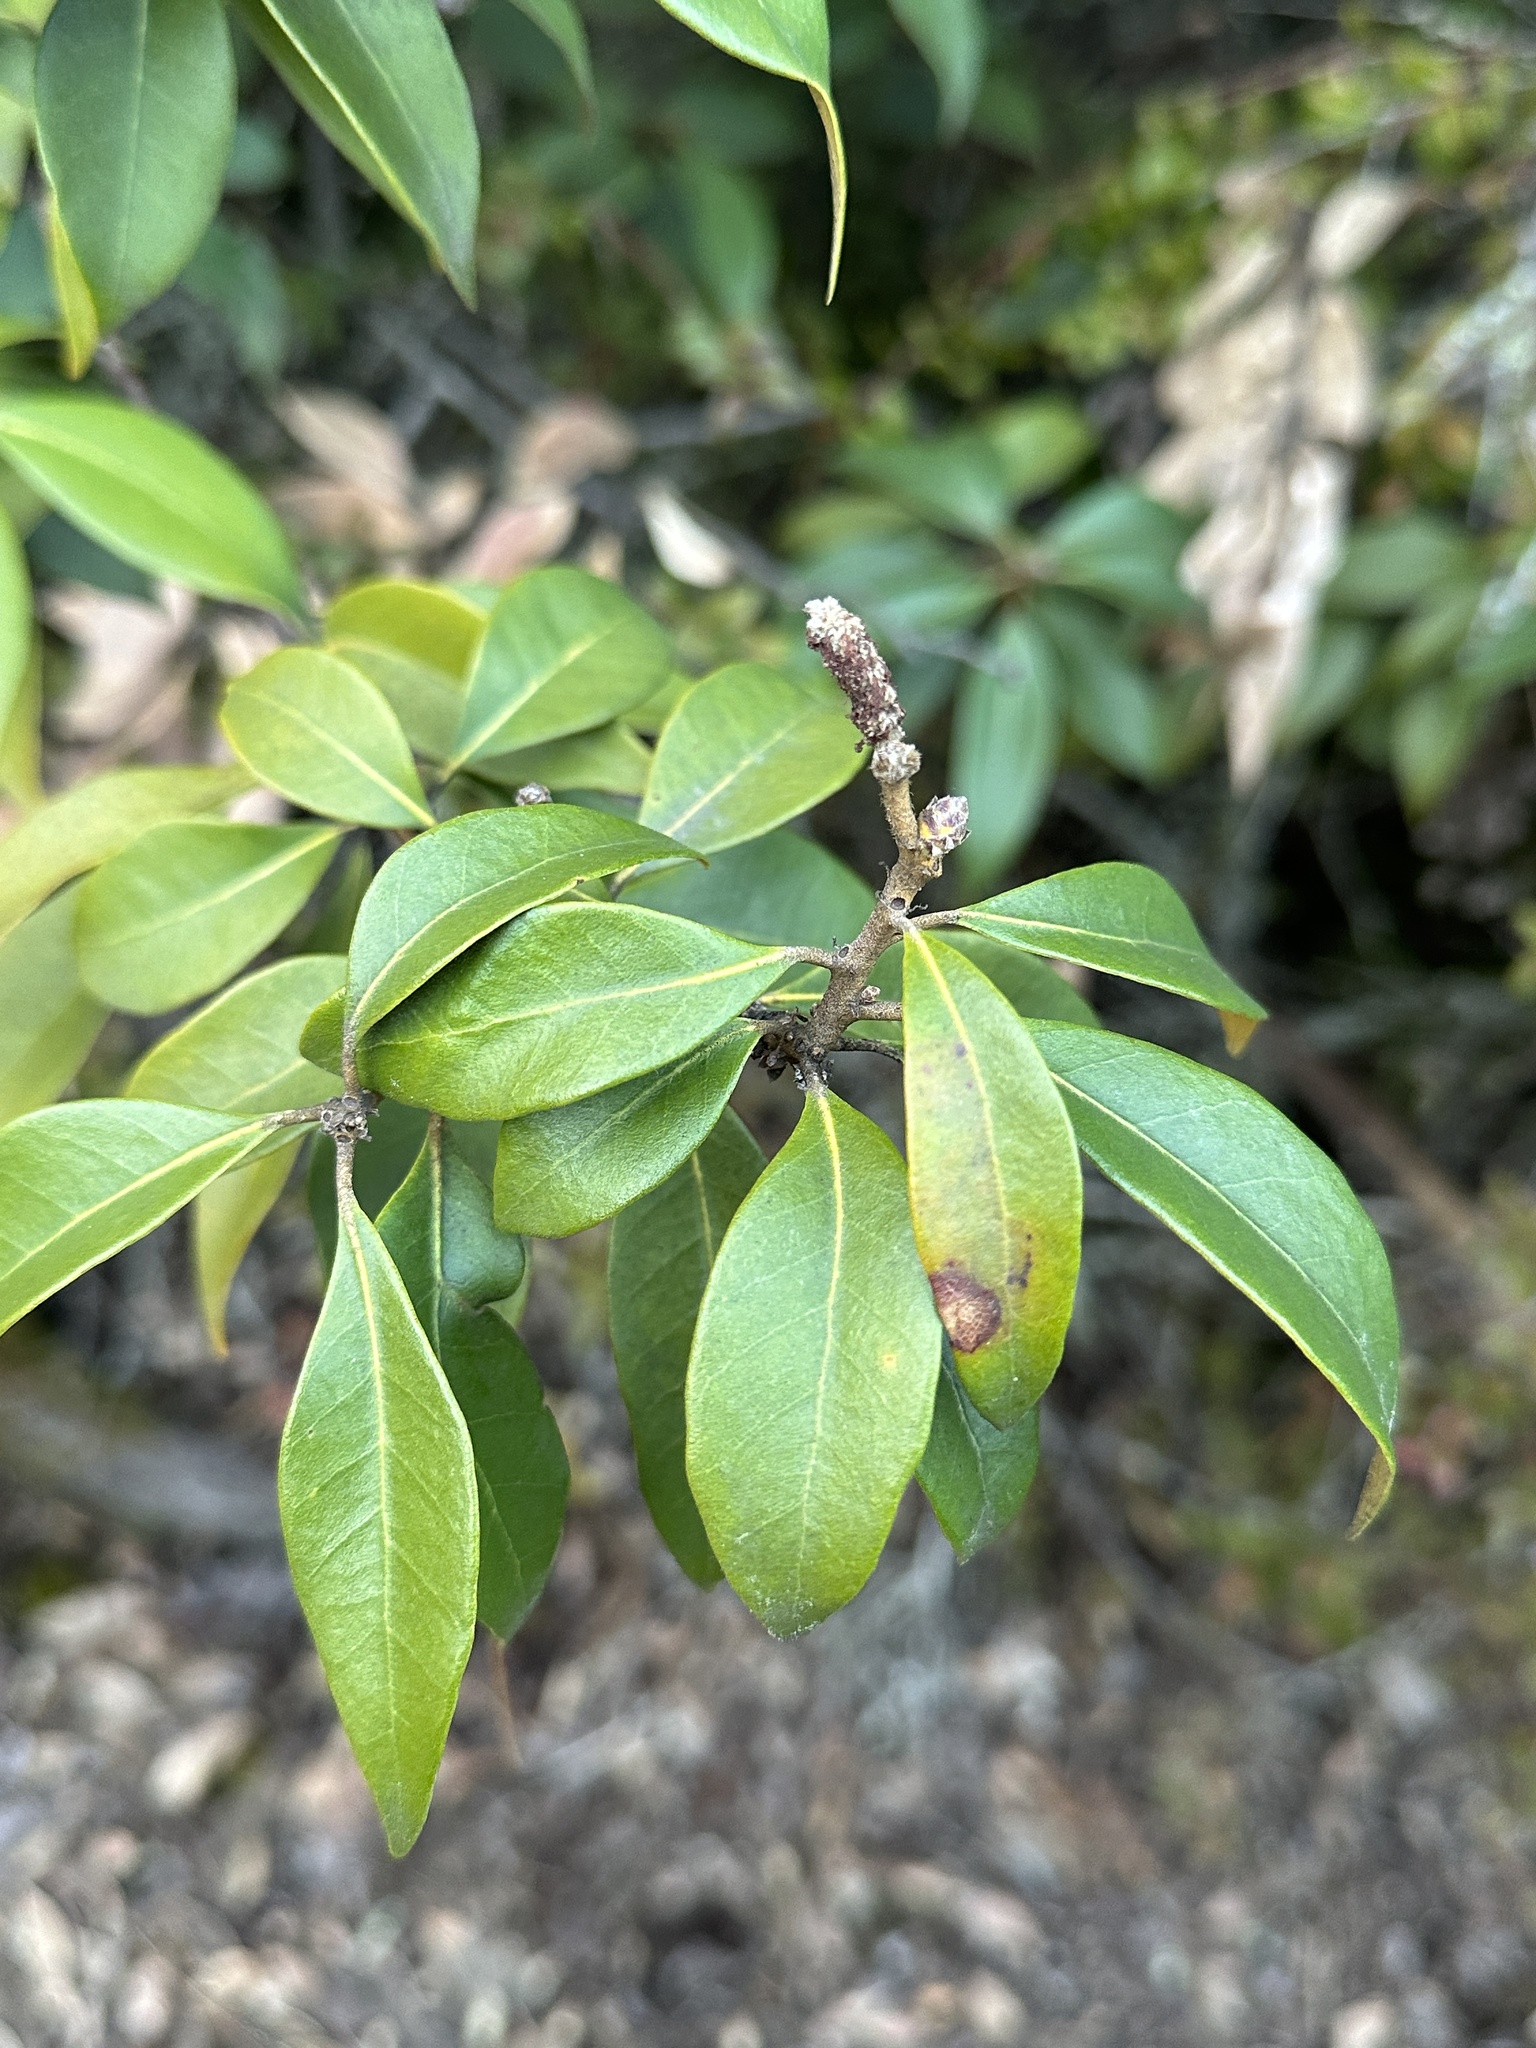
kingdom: Plantae
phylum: Tracheophyta
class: Magnoliopsida
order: Fagales
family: Fagaceae
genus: Chrysolepis
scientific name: Chrysolepis chrysophylla
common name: Giant chinquapin
